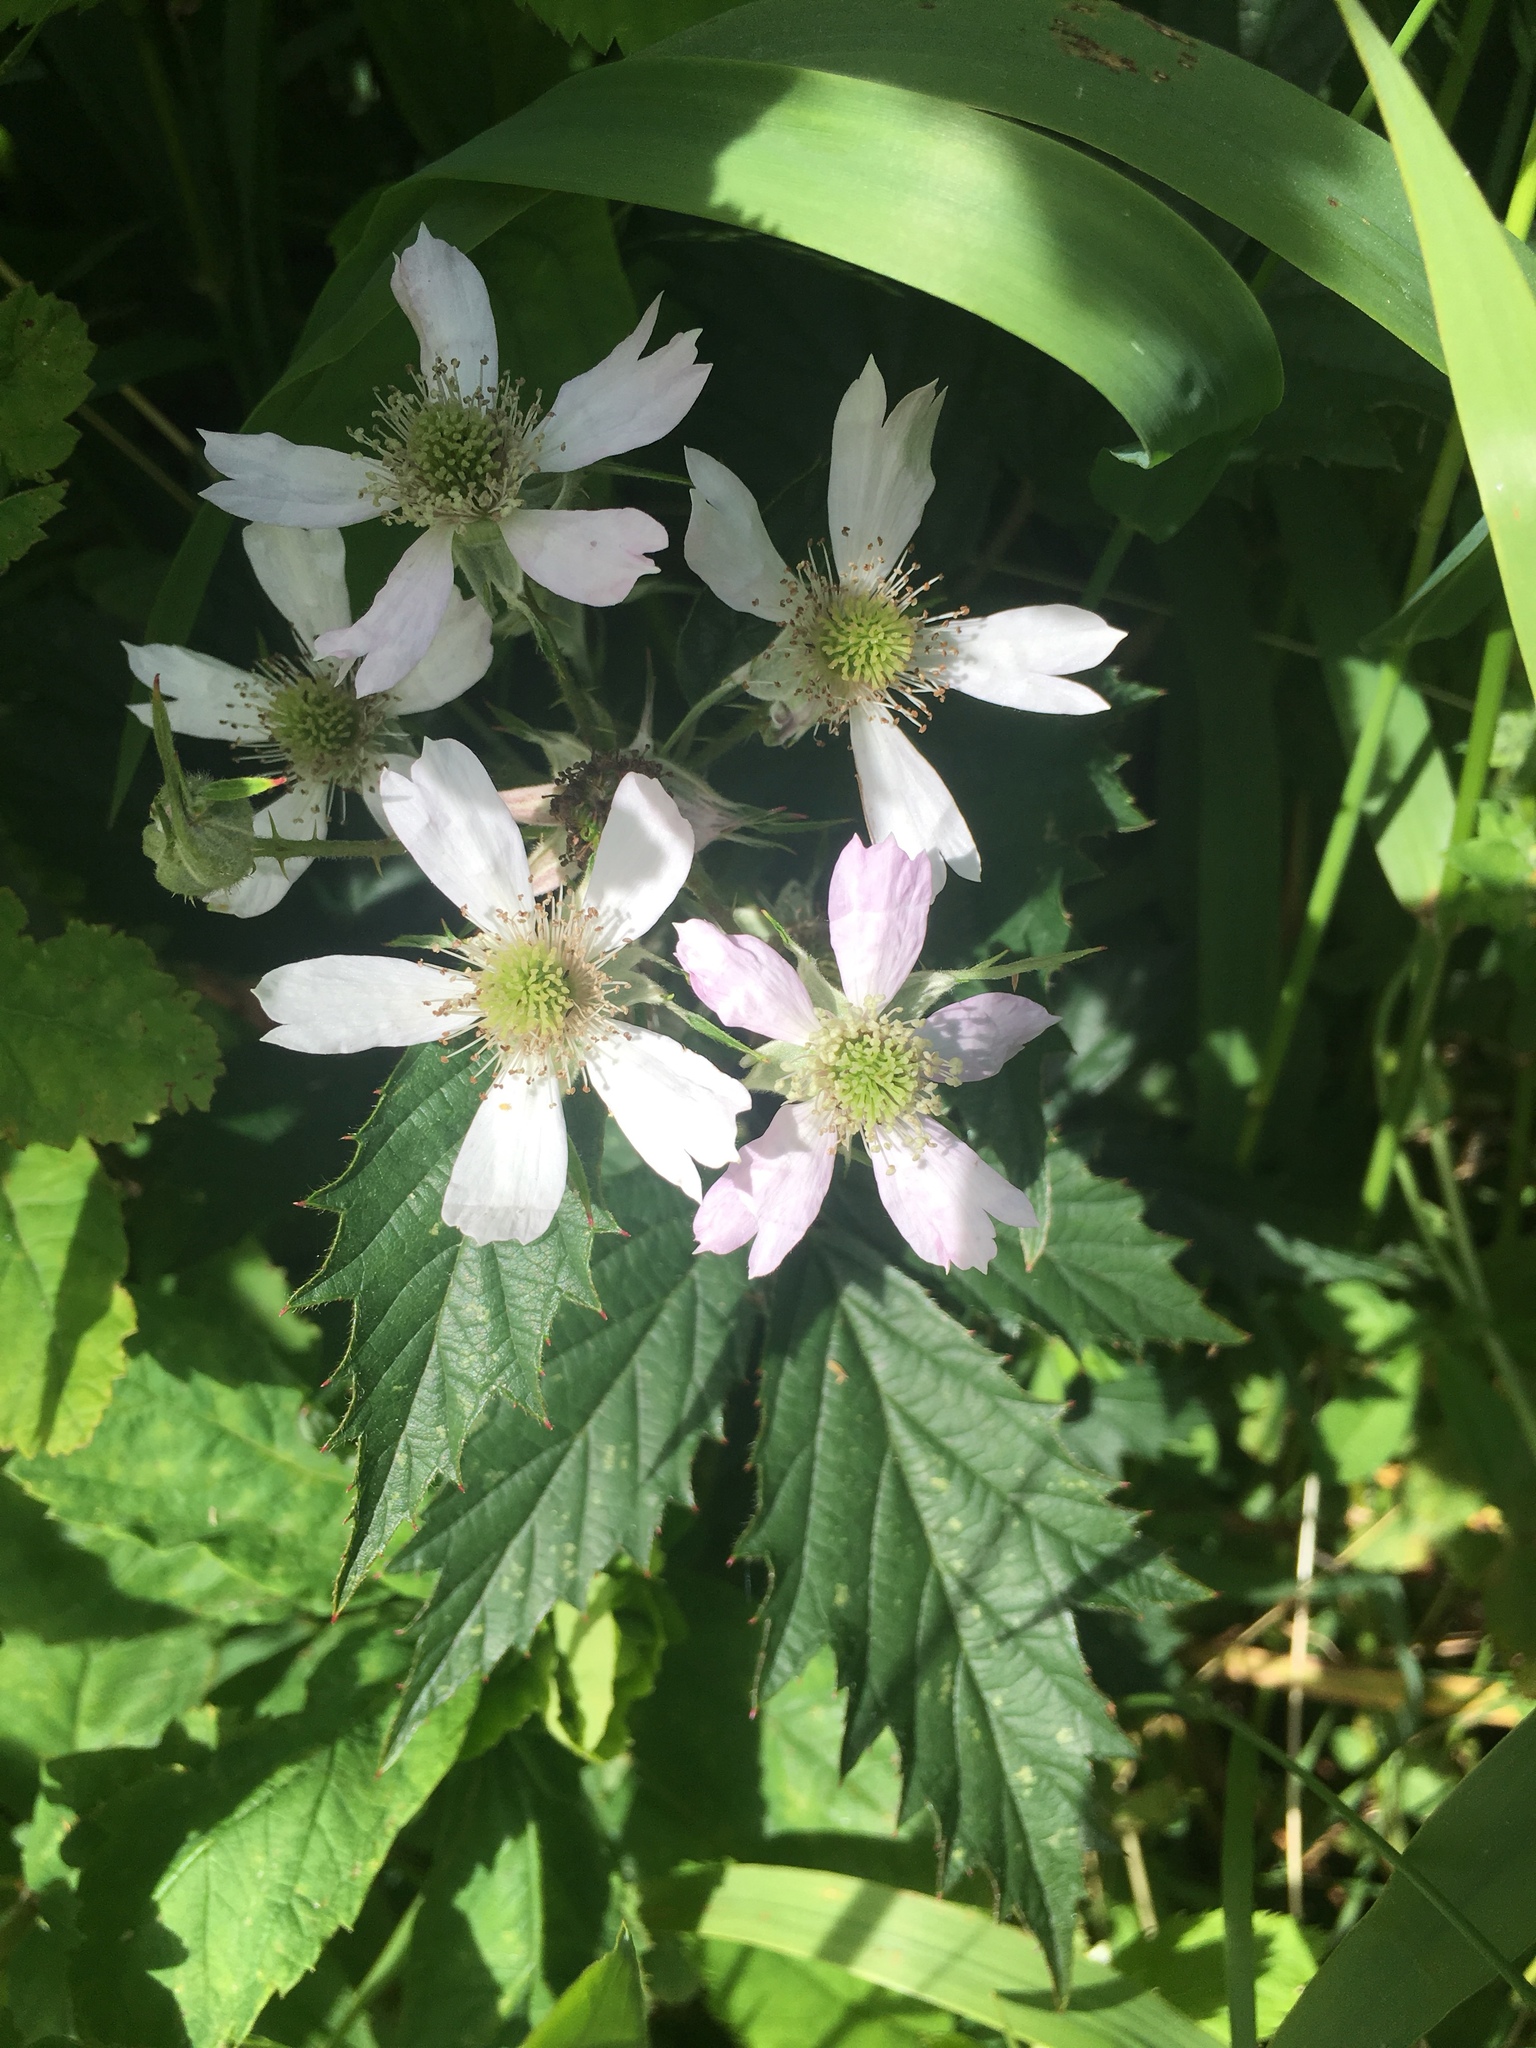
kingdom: Plantae
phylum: Tracheophyta
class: Magnoliopsida
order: Rosales
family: Rosaceae
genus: Rubus
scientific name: Rubus laciniatus
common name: Evergreen blackberry
